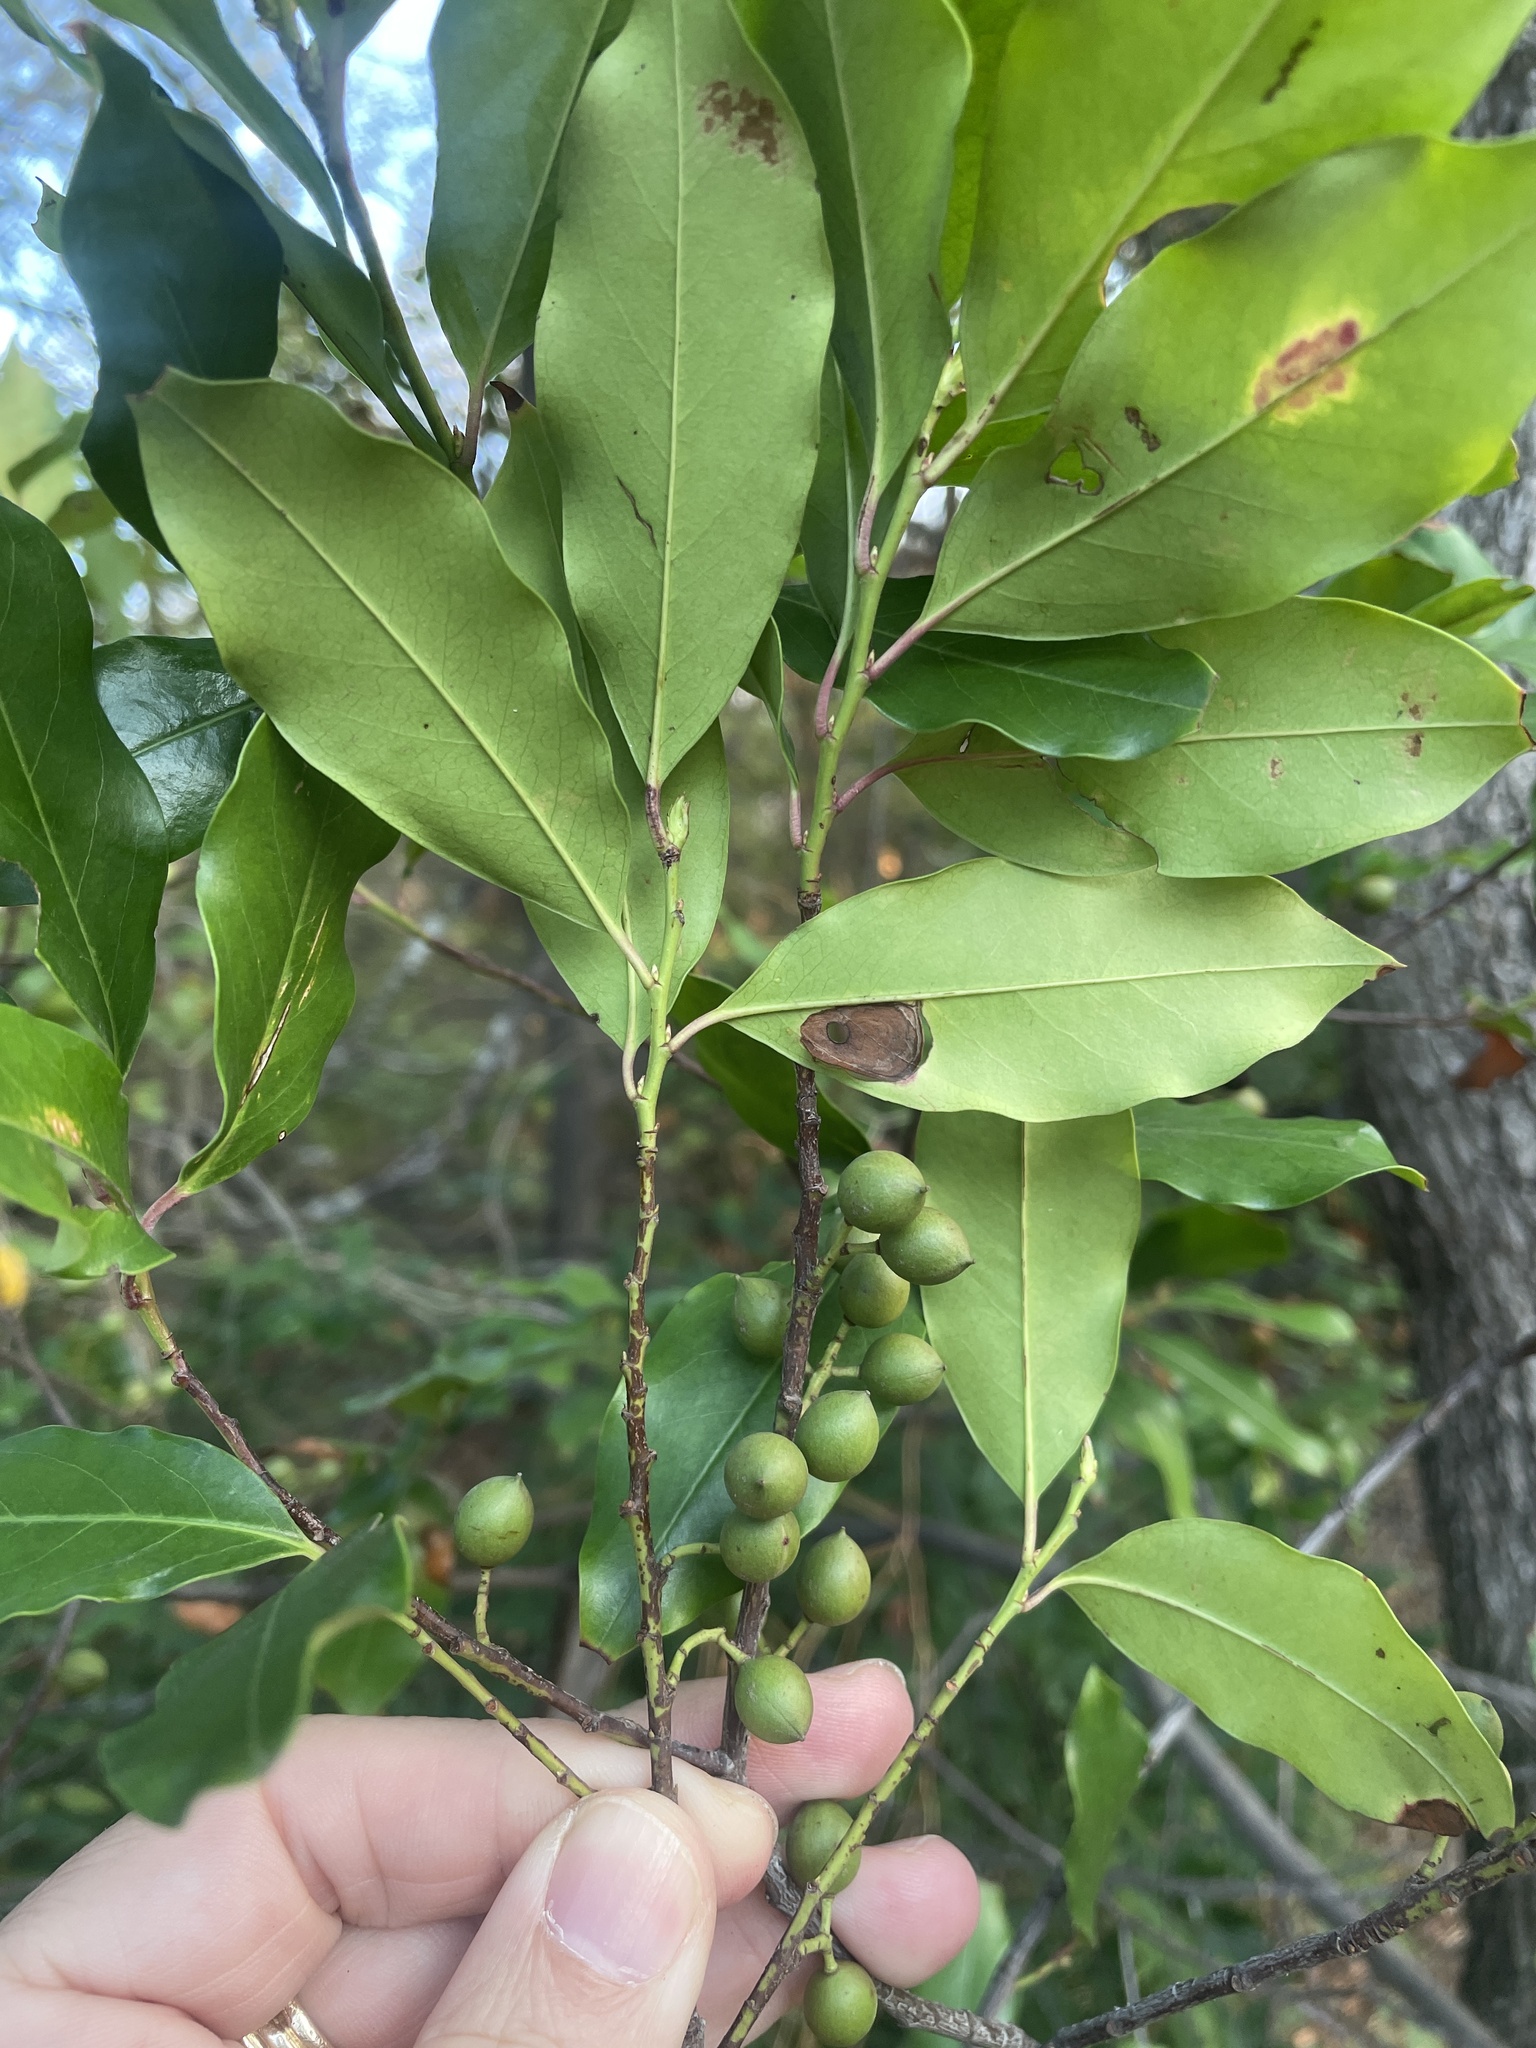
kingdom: Plantae
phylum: Tracheophyta
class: Magnoliopsida
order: Rosales
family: Rosaceae
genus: Prunus
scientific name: Prunus caroliniana
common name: Carolina laurel cherry
